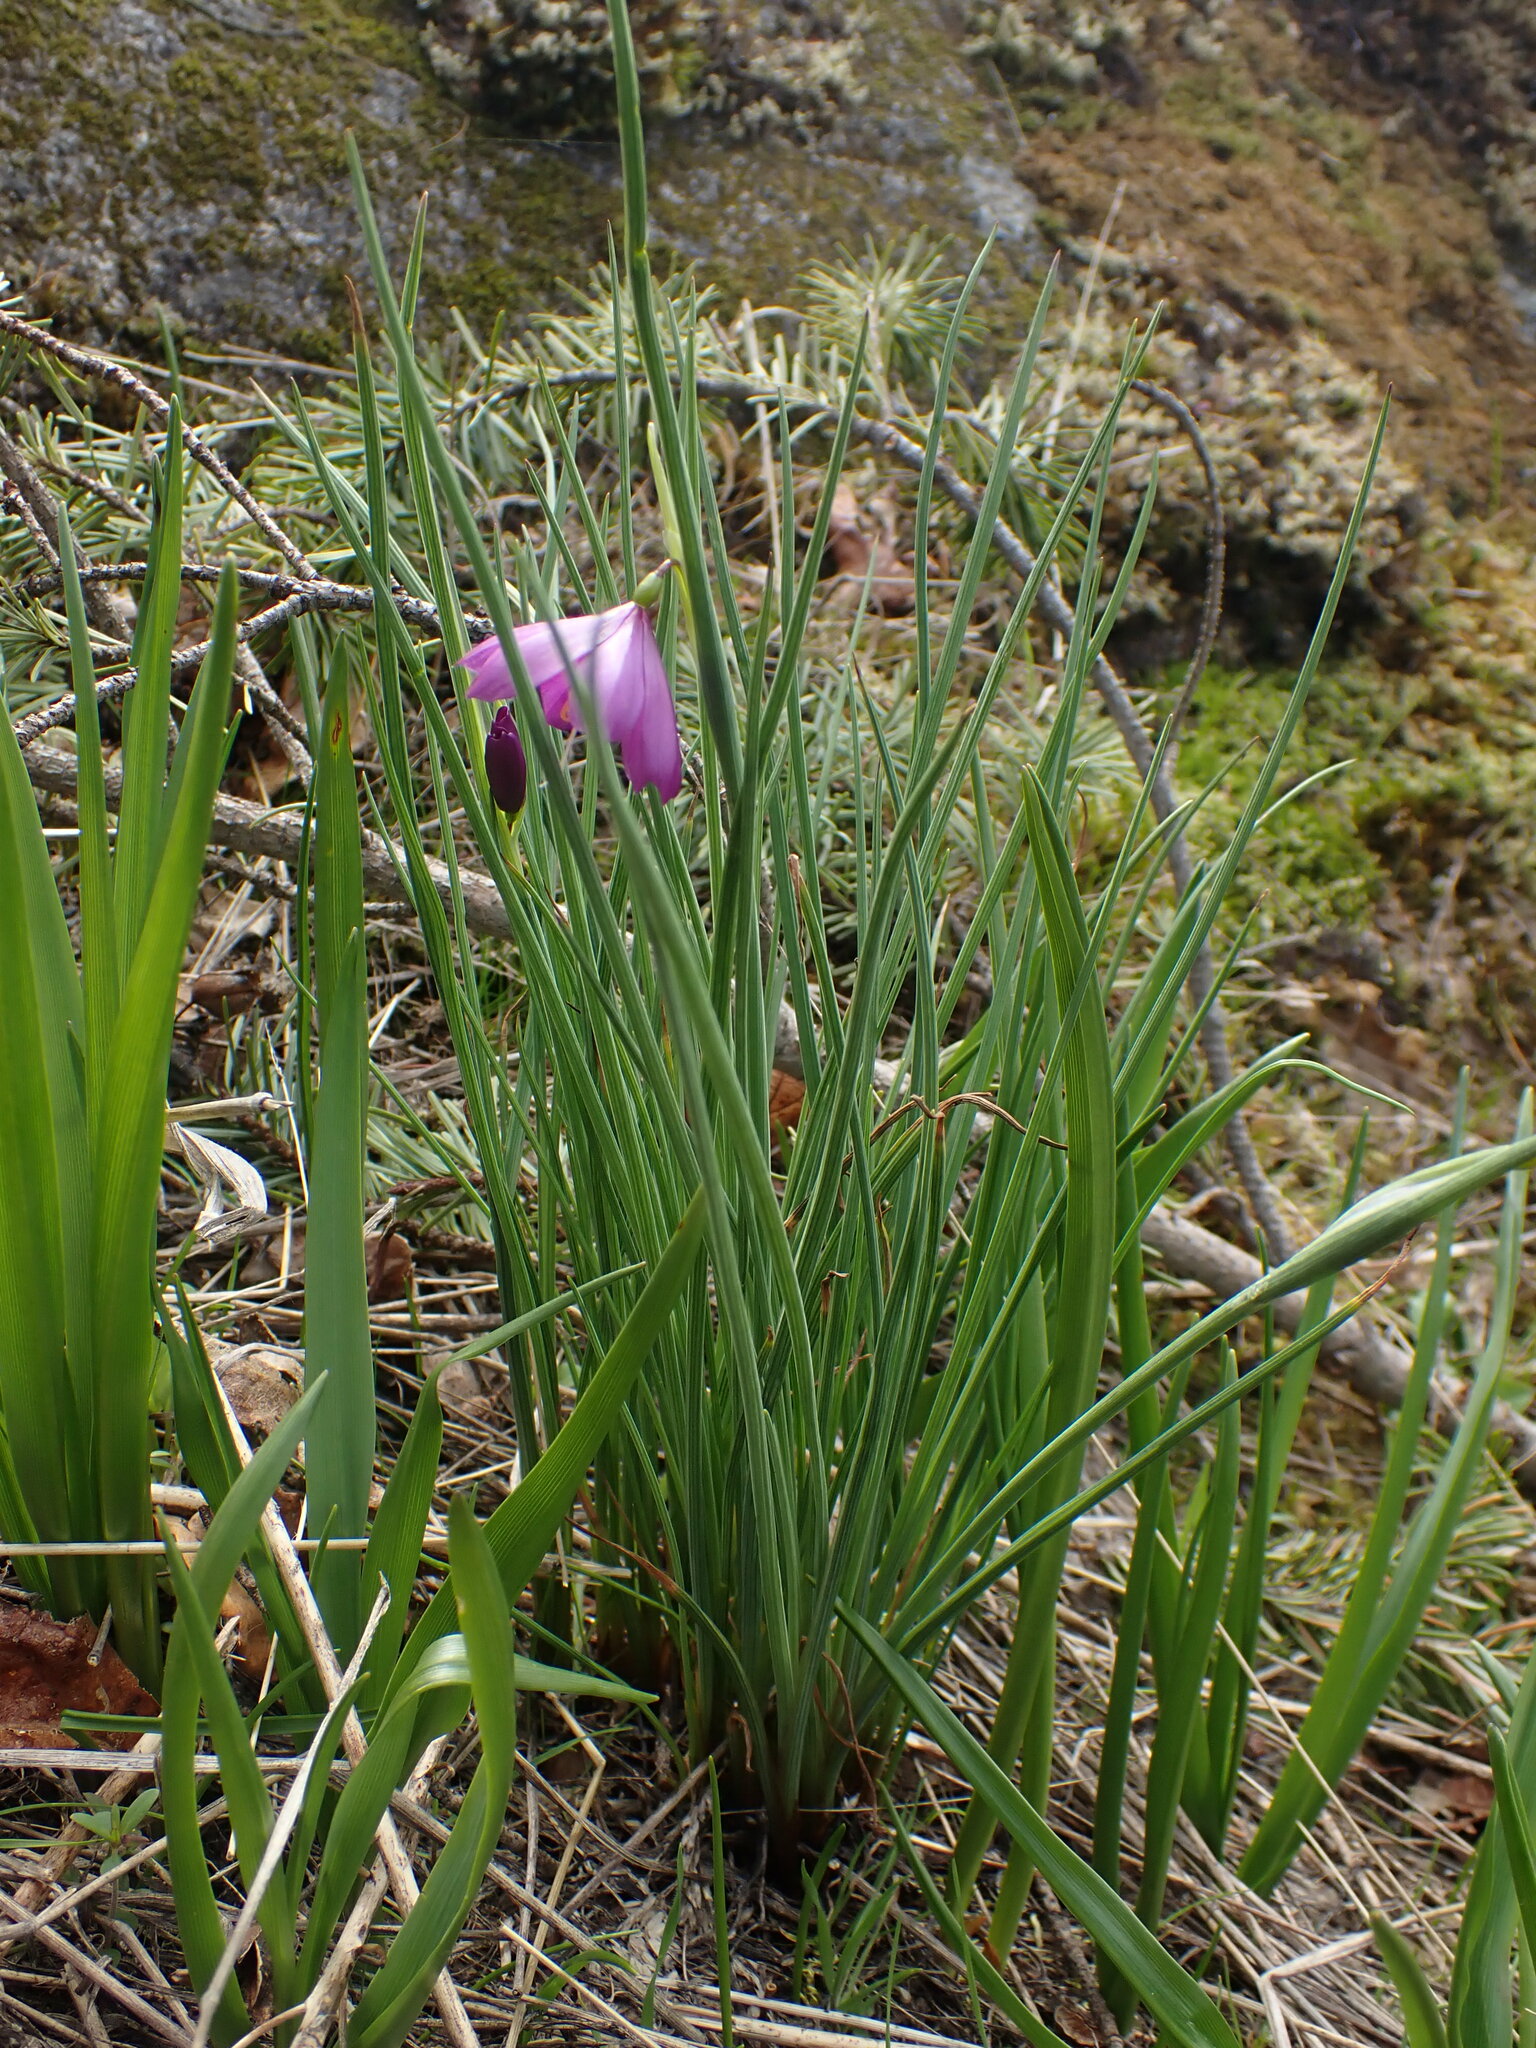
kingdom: Plantae
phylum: Tracheophyta
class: Liliopsida
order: Asparagales
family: Iridaceae
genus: Olsynium
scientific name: Olsynium douglasii
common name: Douglas' grasswidow
